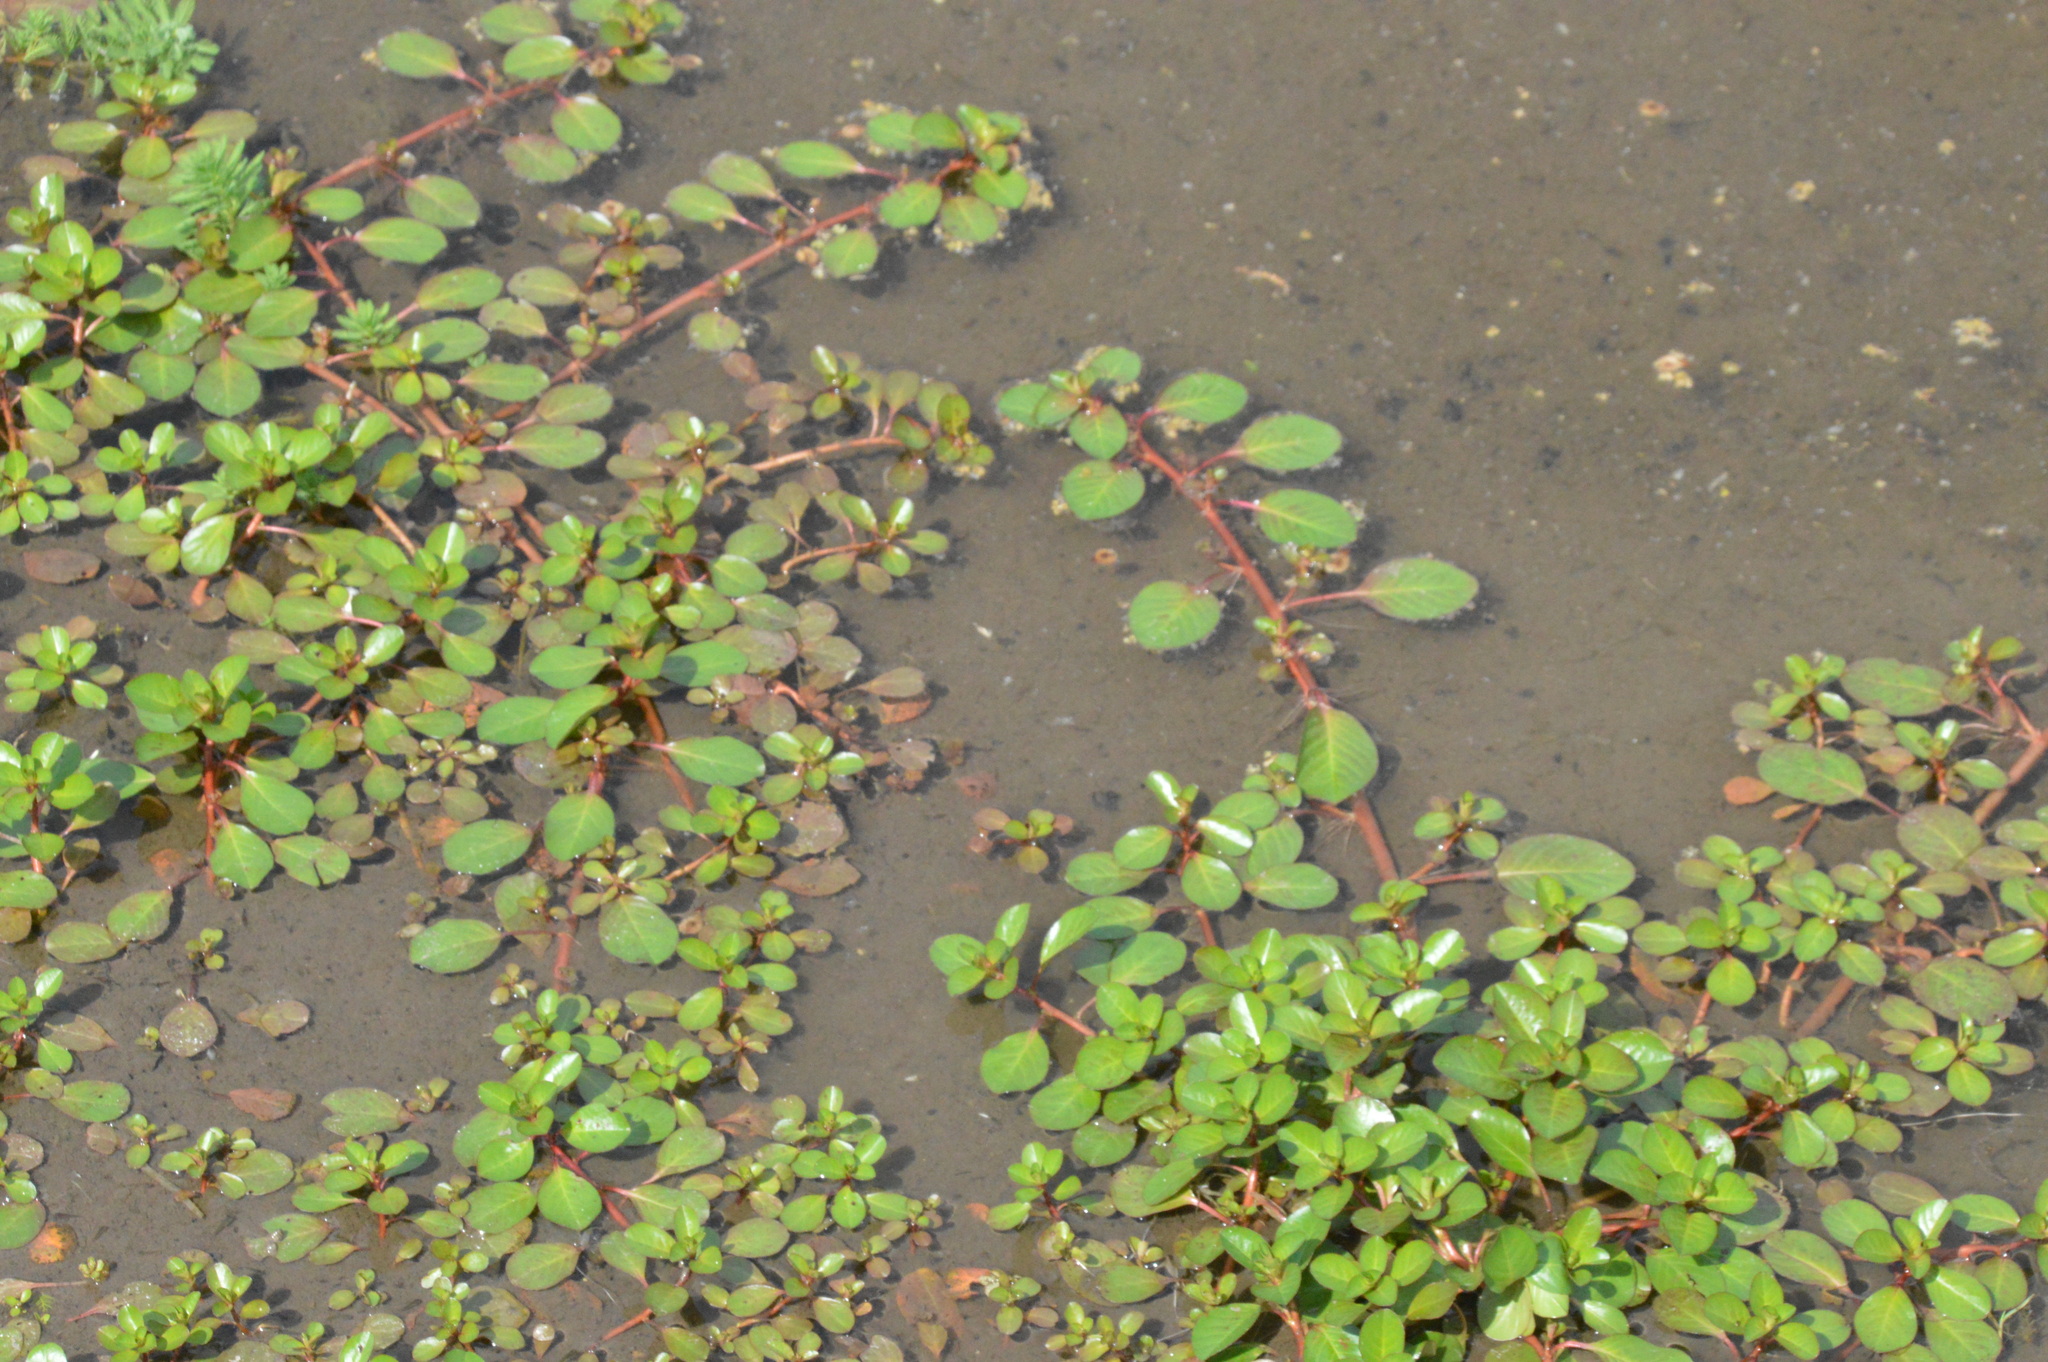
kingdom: Plantae
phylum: Tracheophyta
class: Magnoliopsida
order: Myrtales
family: Onagraceae
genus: Ludwigia
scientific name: Ludwigia peploides
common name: Floating primrose-willow
